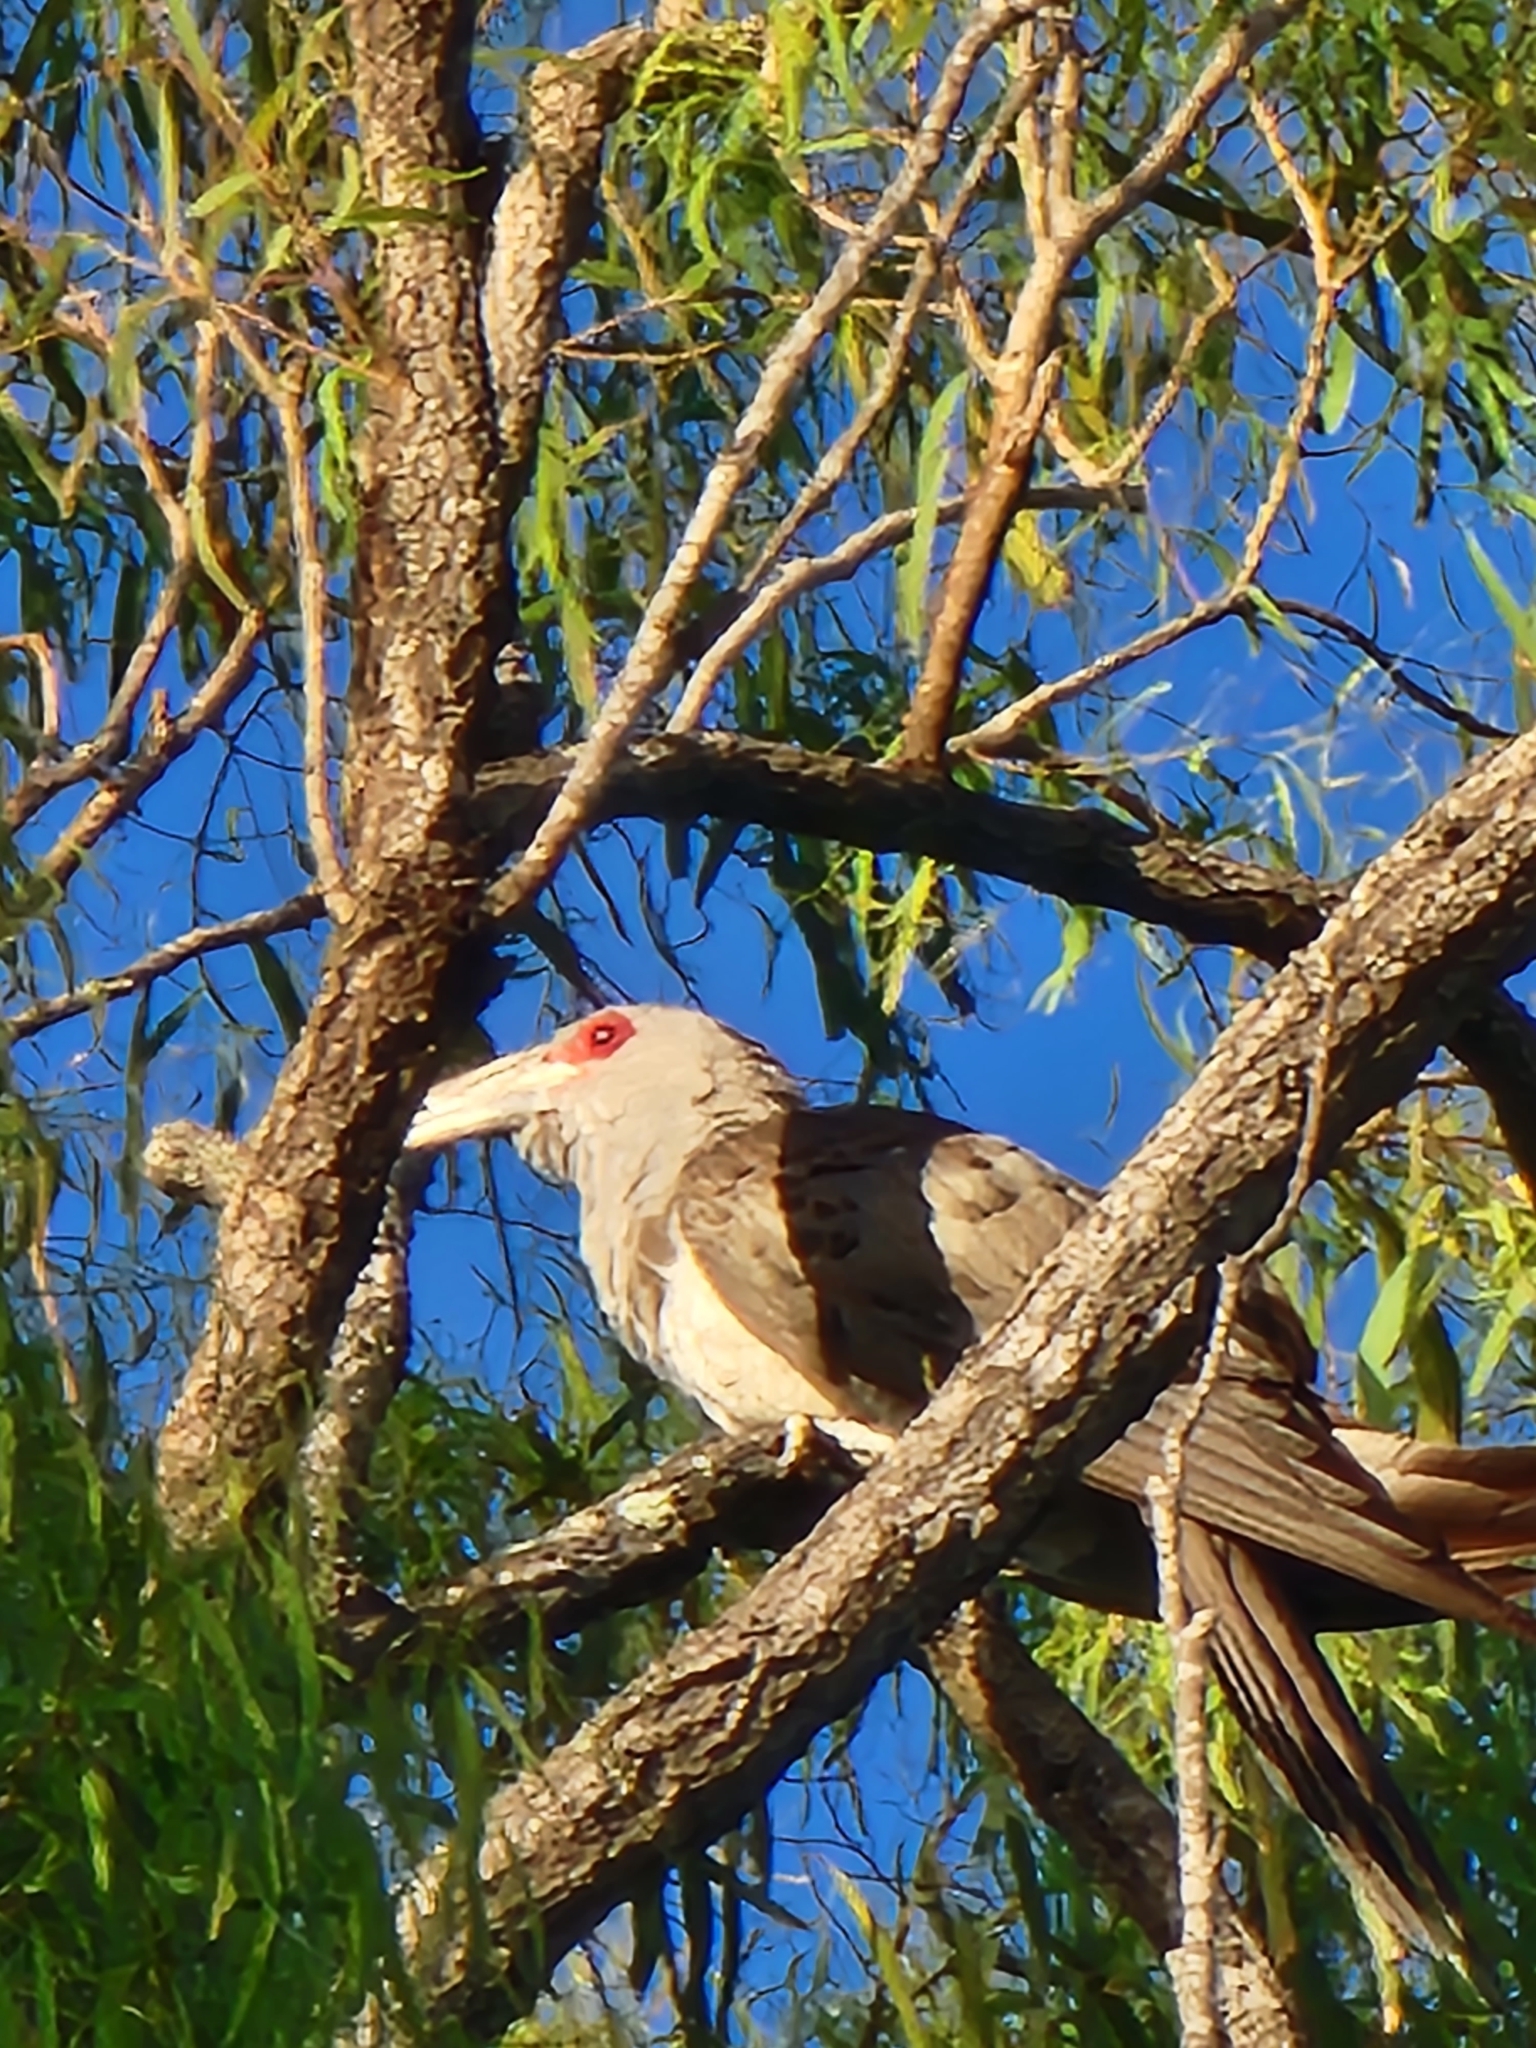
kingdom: Animalia
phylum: Chordata
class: Aves
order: Cuculiformes
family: Cuculidae
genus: Scythrops
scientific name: Scythrops novaehollandiae
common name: Channel-billed cuckoo
